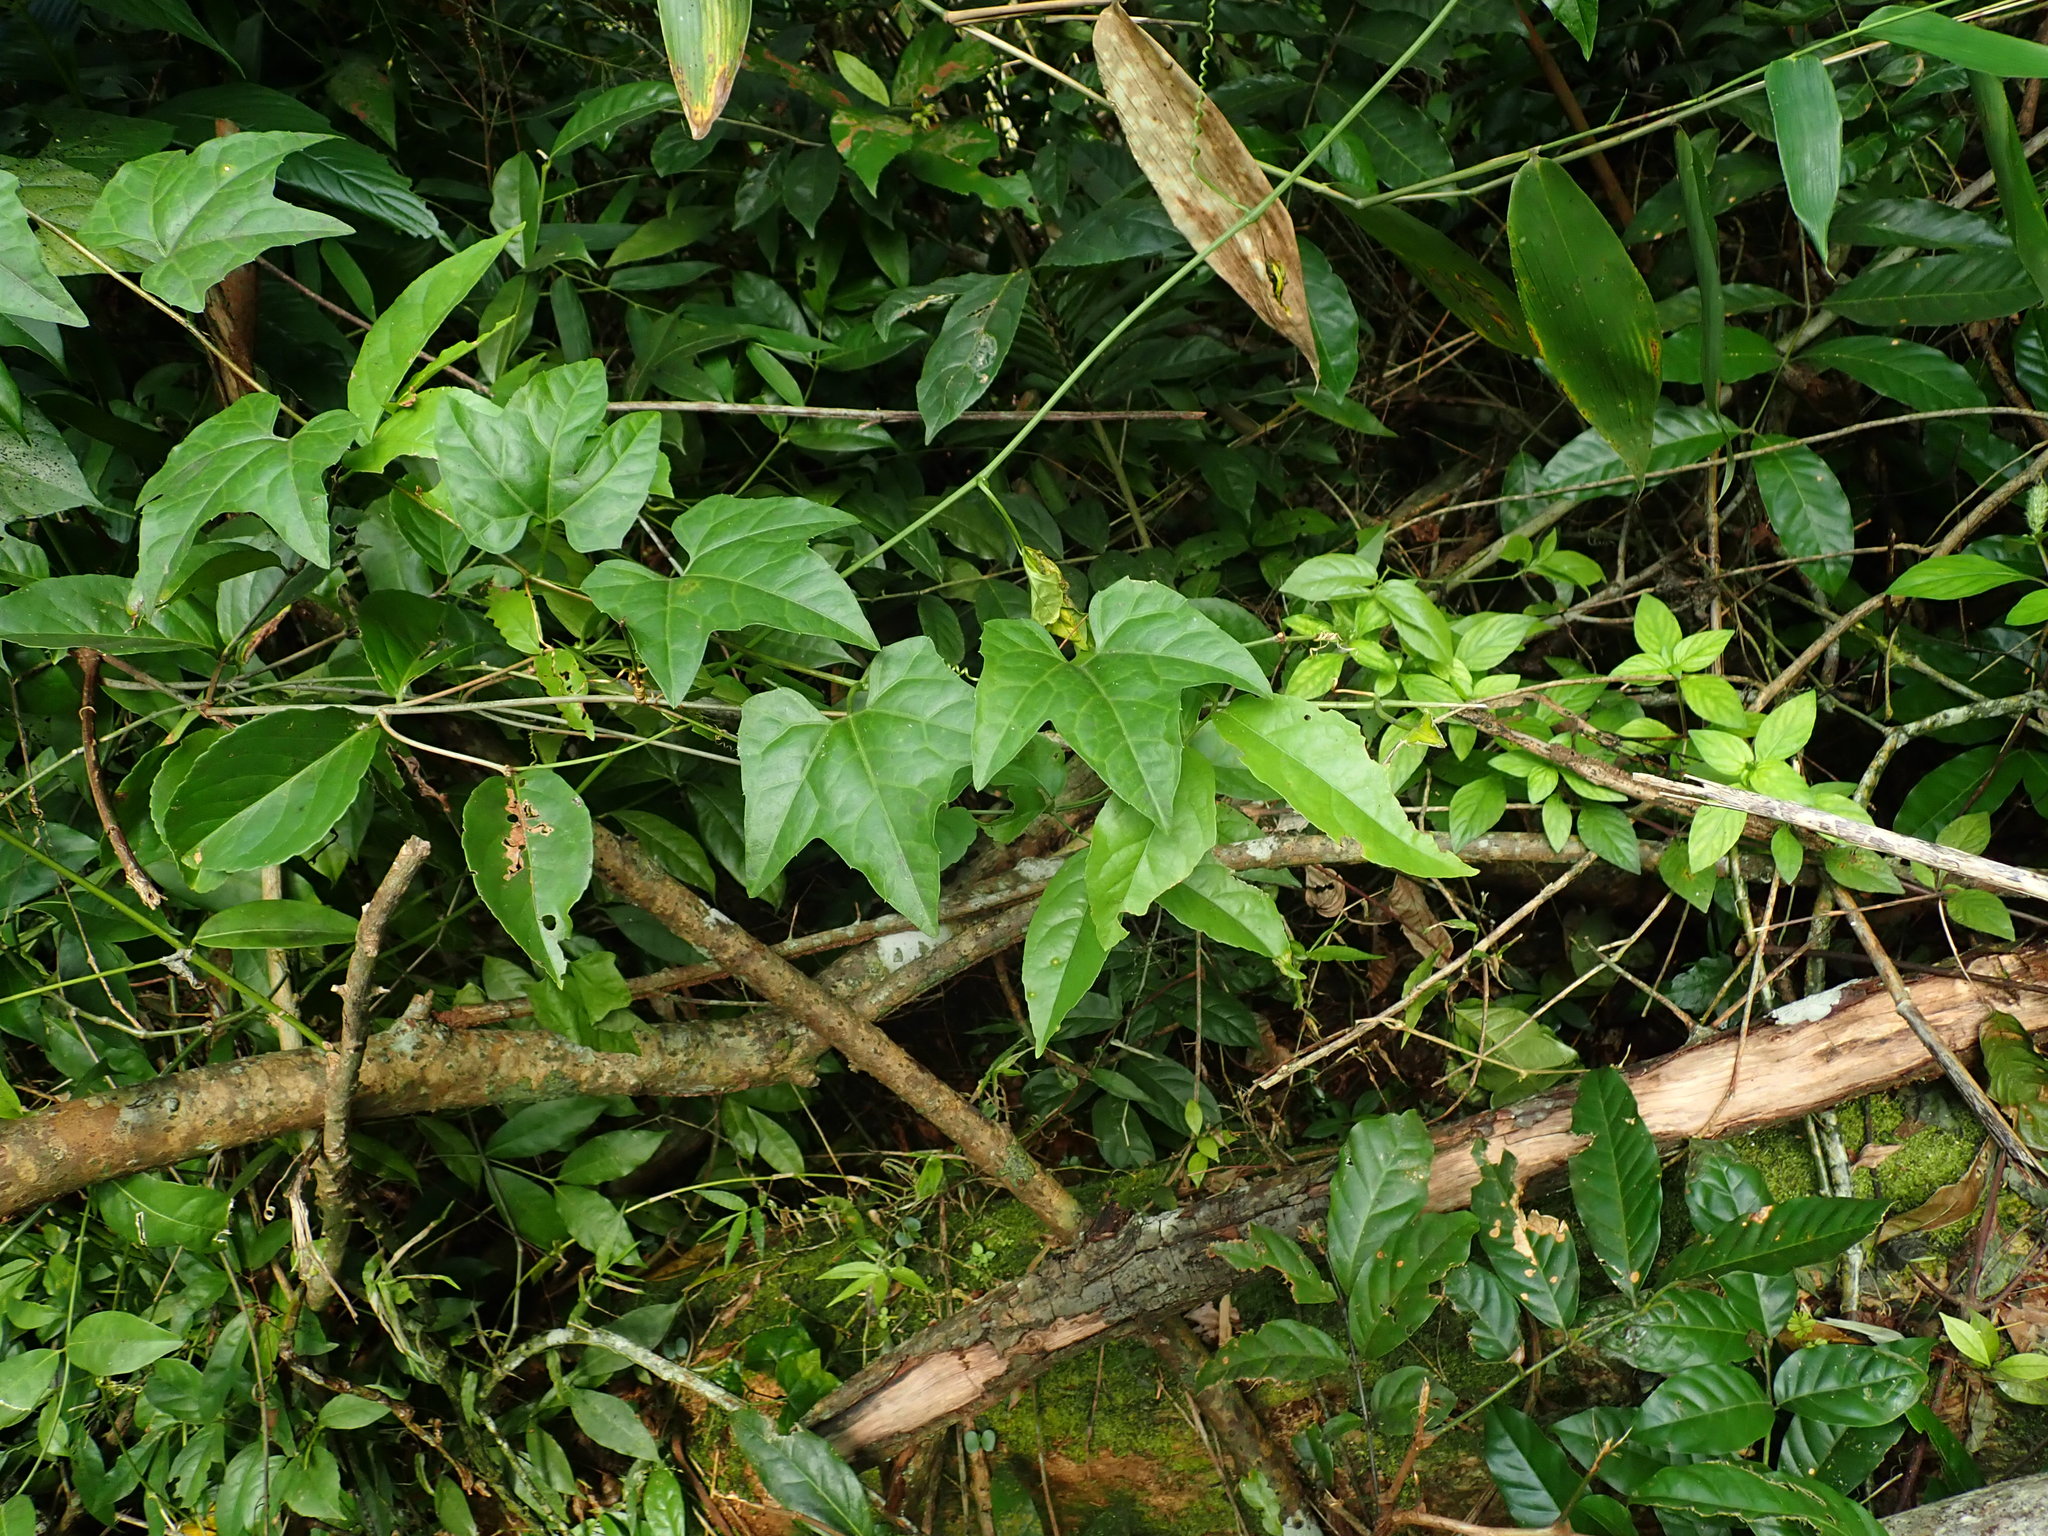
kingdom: Plantae
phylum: Tracheophyta
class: Magnoliopsida
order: Cucurbitales
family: Cucurbitaceae
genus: Cayaponia
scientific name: Cayaponia racemosa
